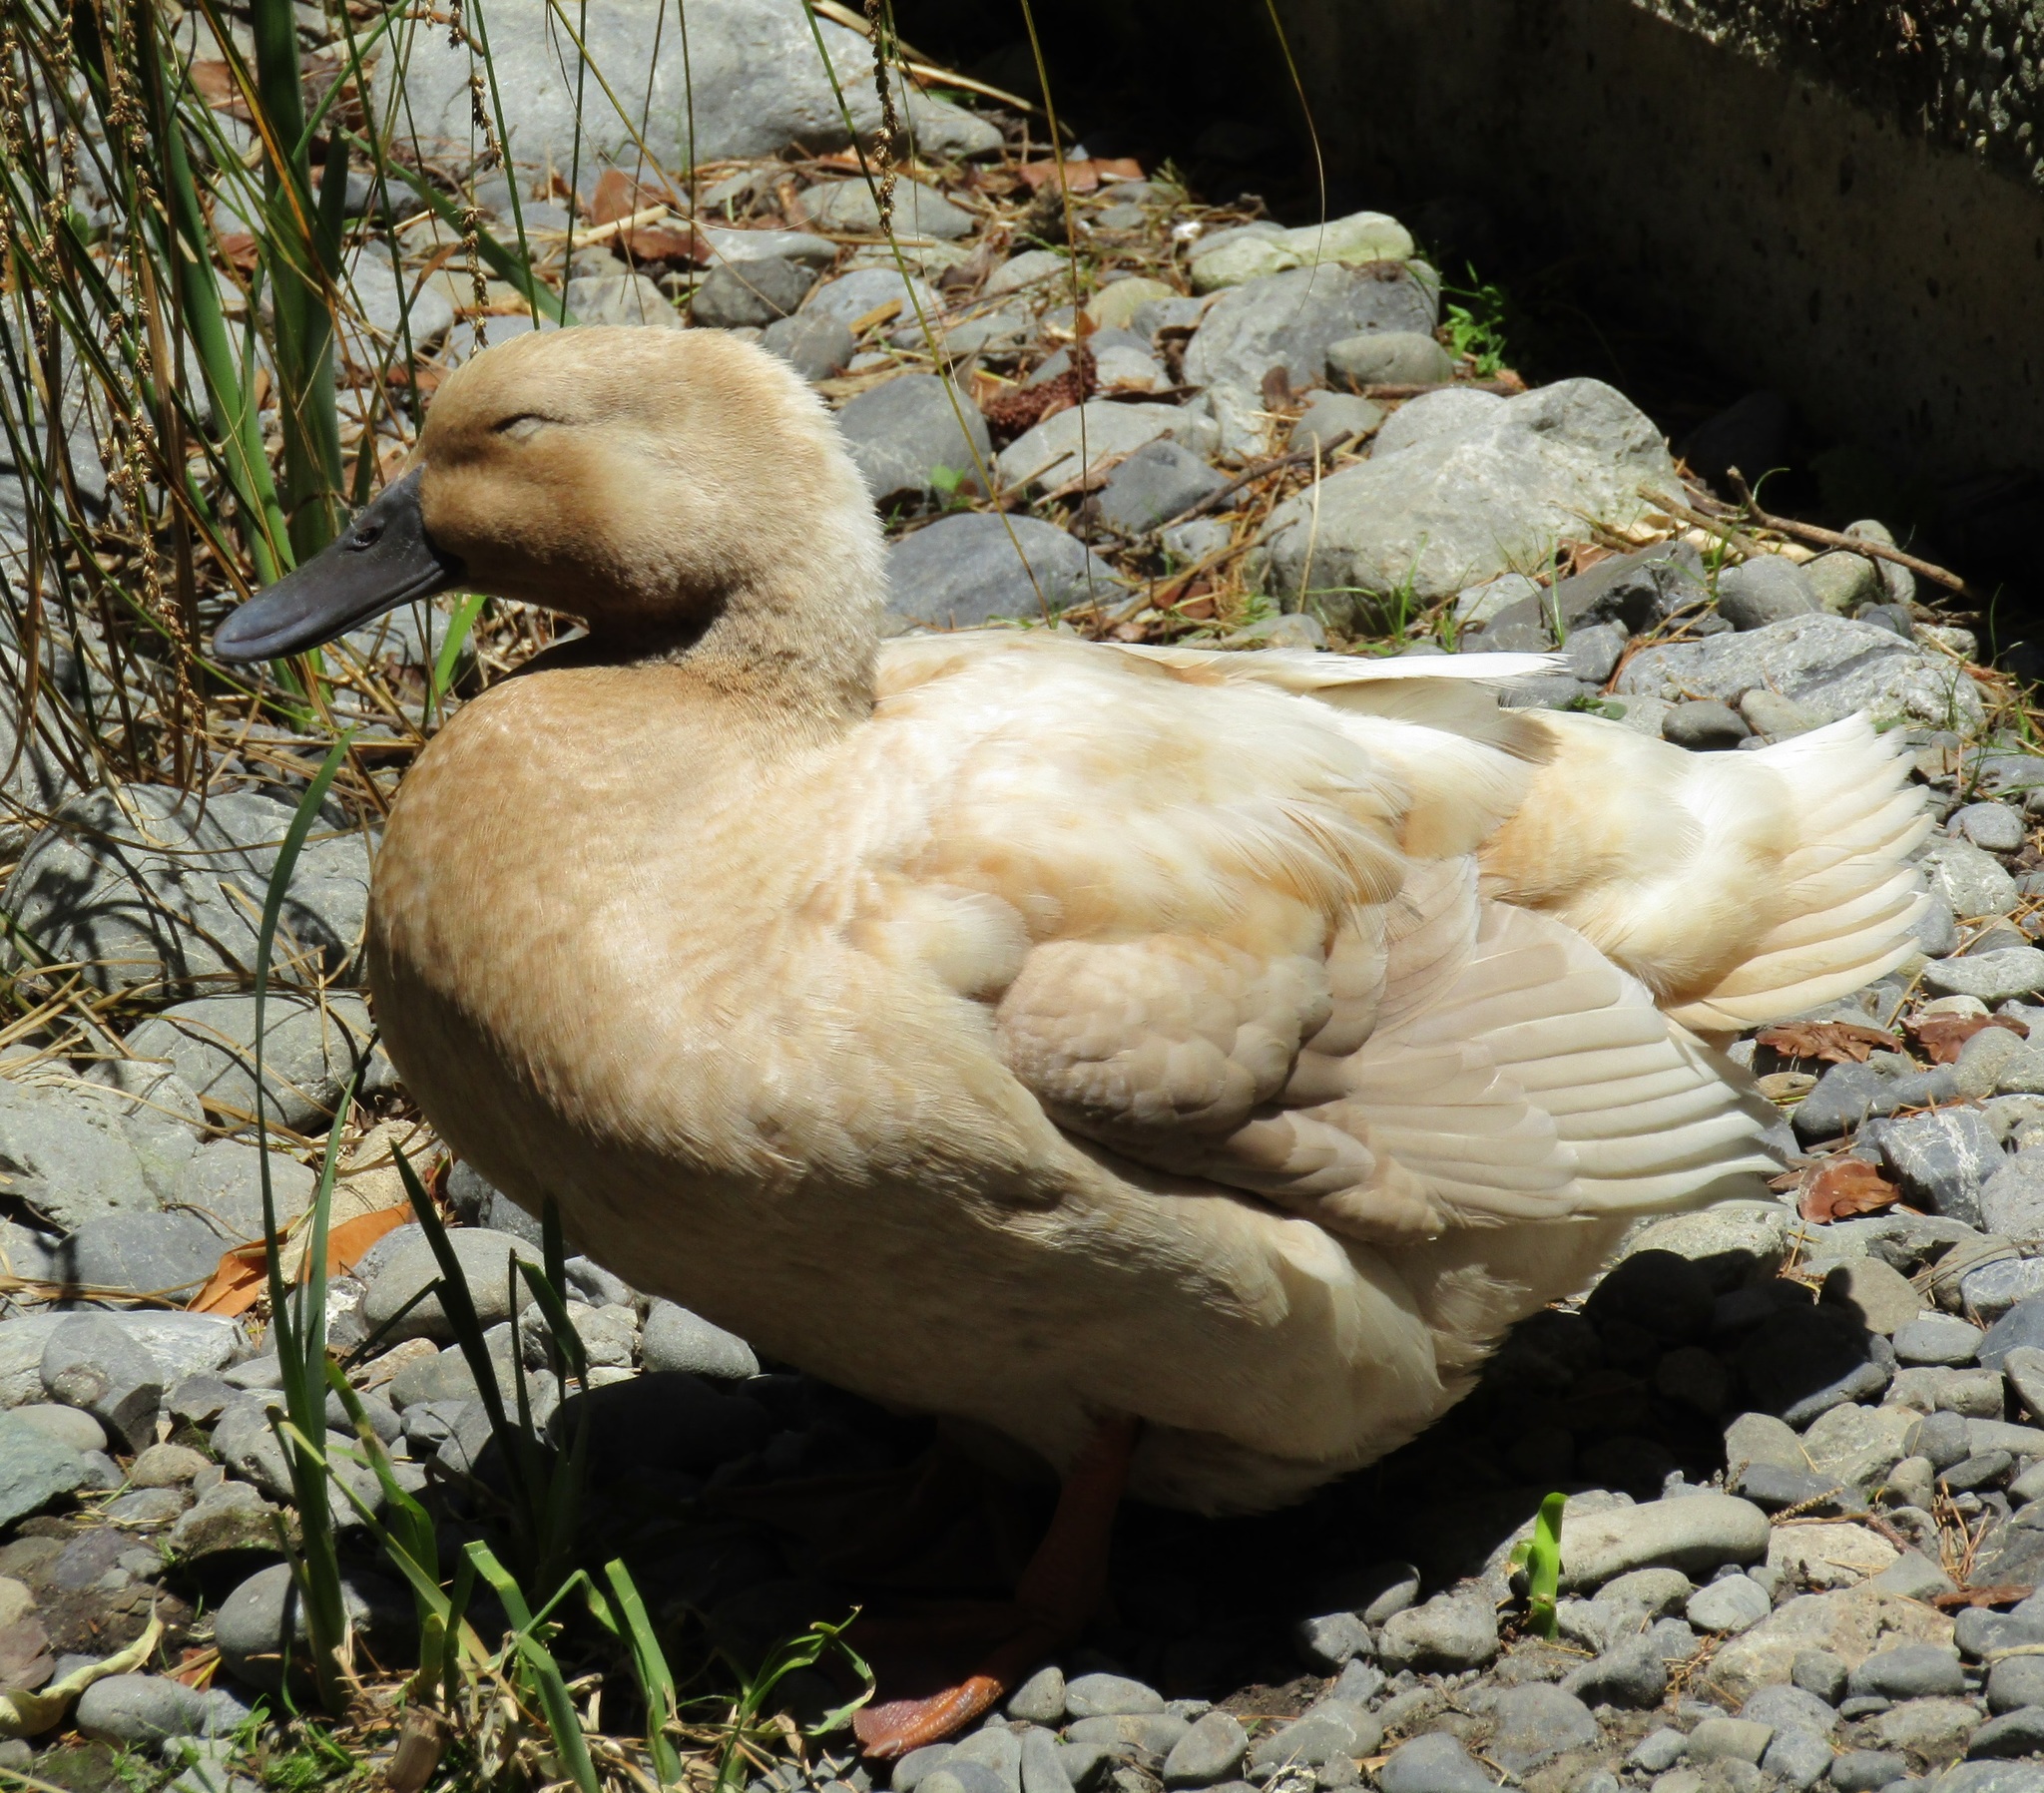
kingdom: Animalia
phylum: Chordata
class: Aves
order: Anseriformes
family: Anatidae
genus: Anas
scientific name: Anas platyrhynchos
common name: Mallard
